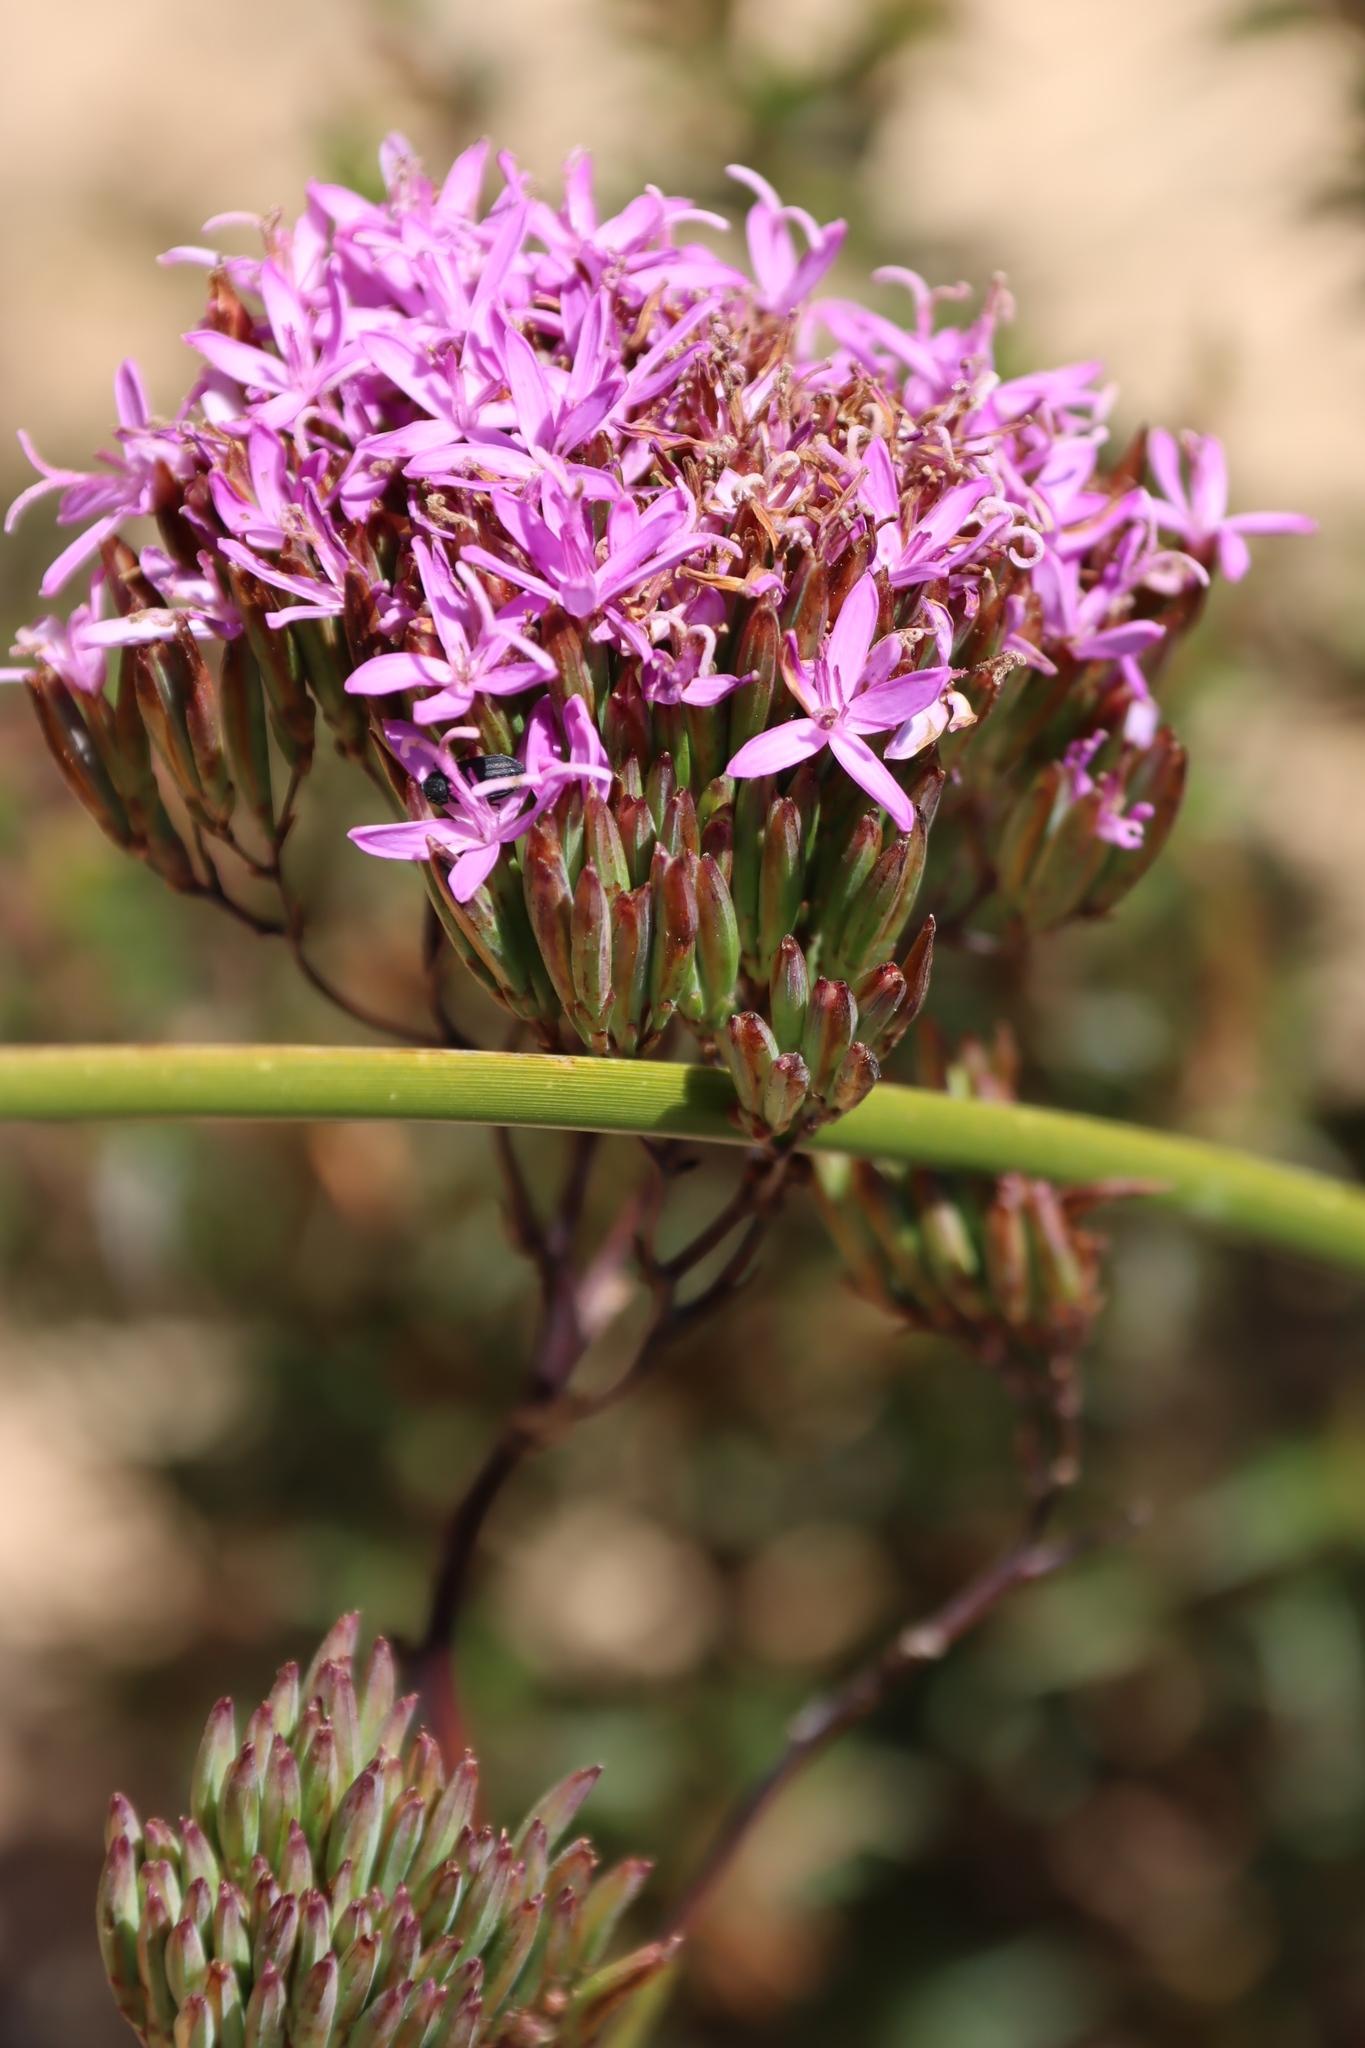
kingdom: Plantae
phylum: Tracheophyta
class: Magnoliopsida
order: Asterales
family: Asteraceae
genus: Corymbium
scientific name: Corymbium glabrum
